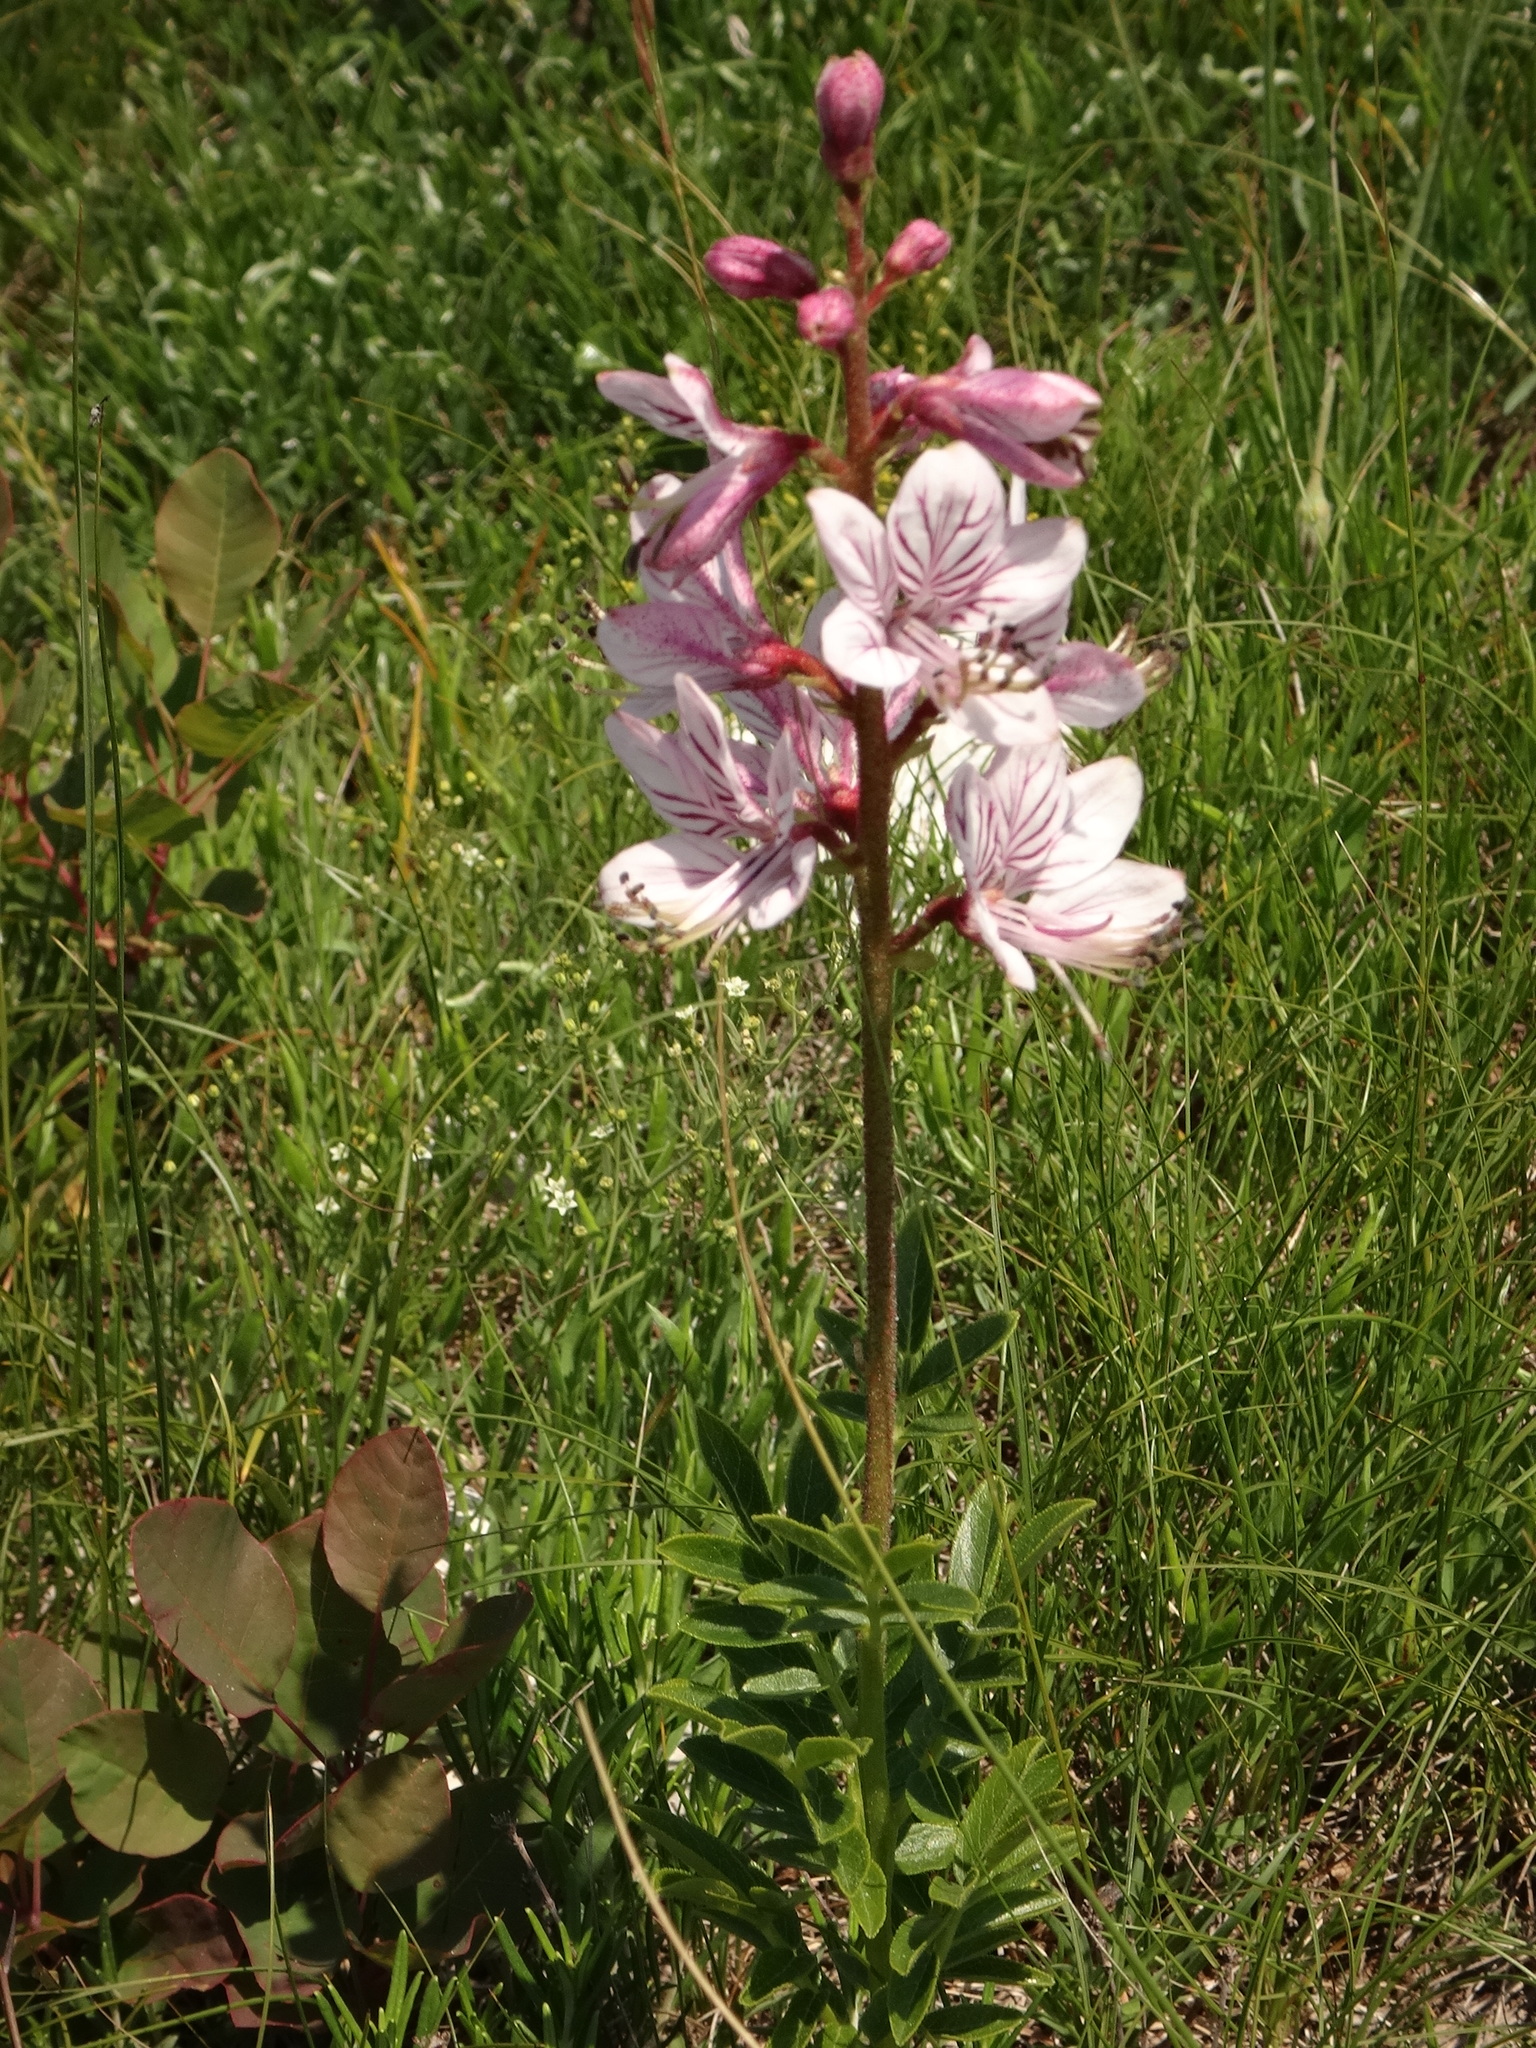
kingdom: Plantae
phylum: Tracheophyta
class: Magnoliopsida
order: Sapindales
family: Rutaceae
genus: Dictamnus
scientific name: Dictamnus albus
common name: Gasplant
